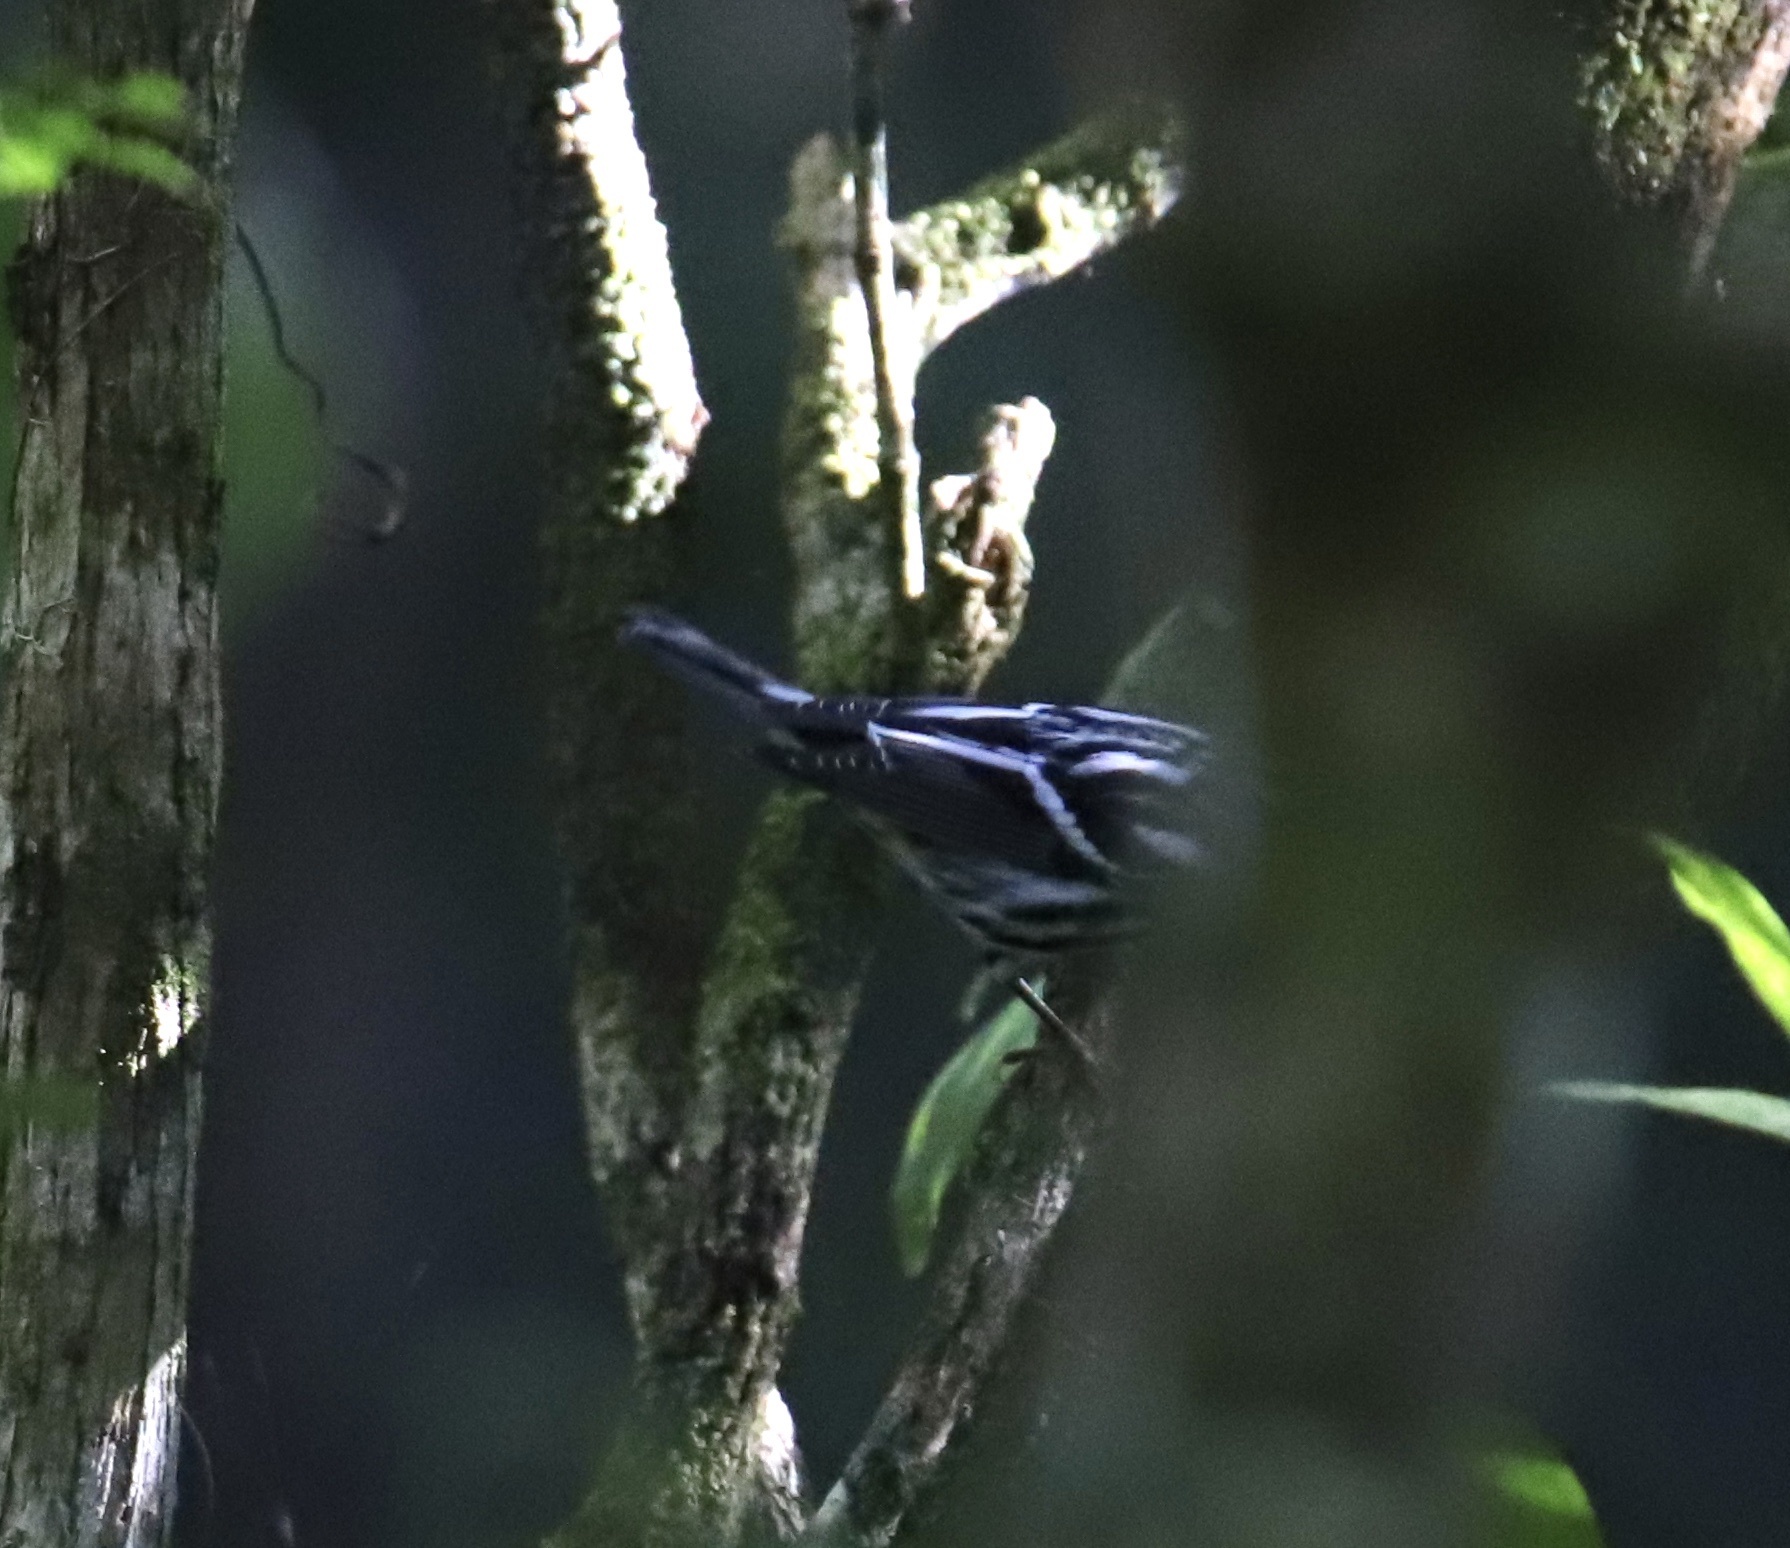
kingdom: Animalia
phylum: Chordata
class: Aves
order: Passeriformes
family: Parulidae
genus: Mniotilta
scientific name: Mniotilta varia
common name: Black-and-white warbler
